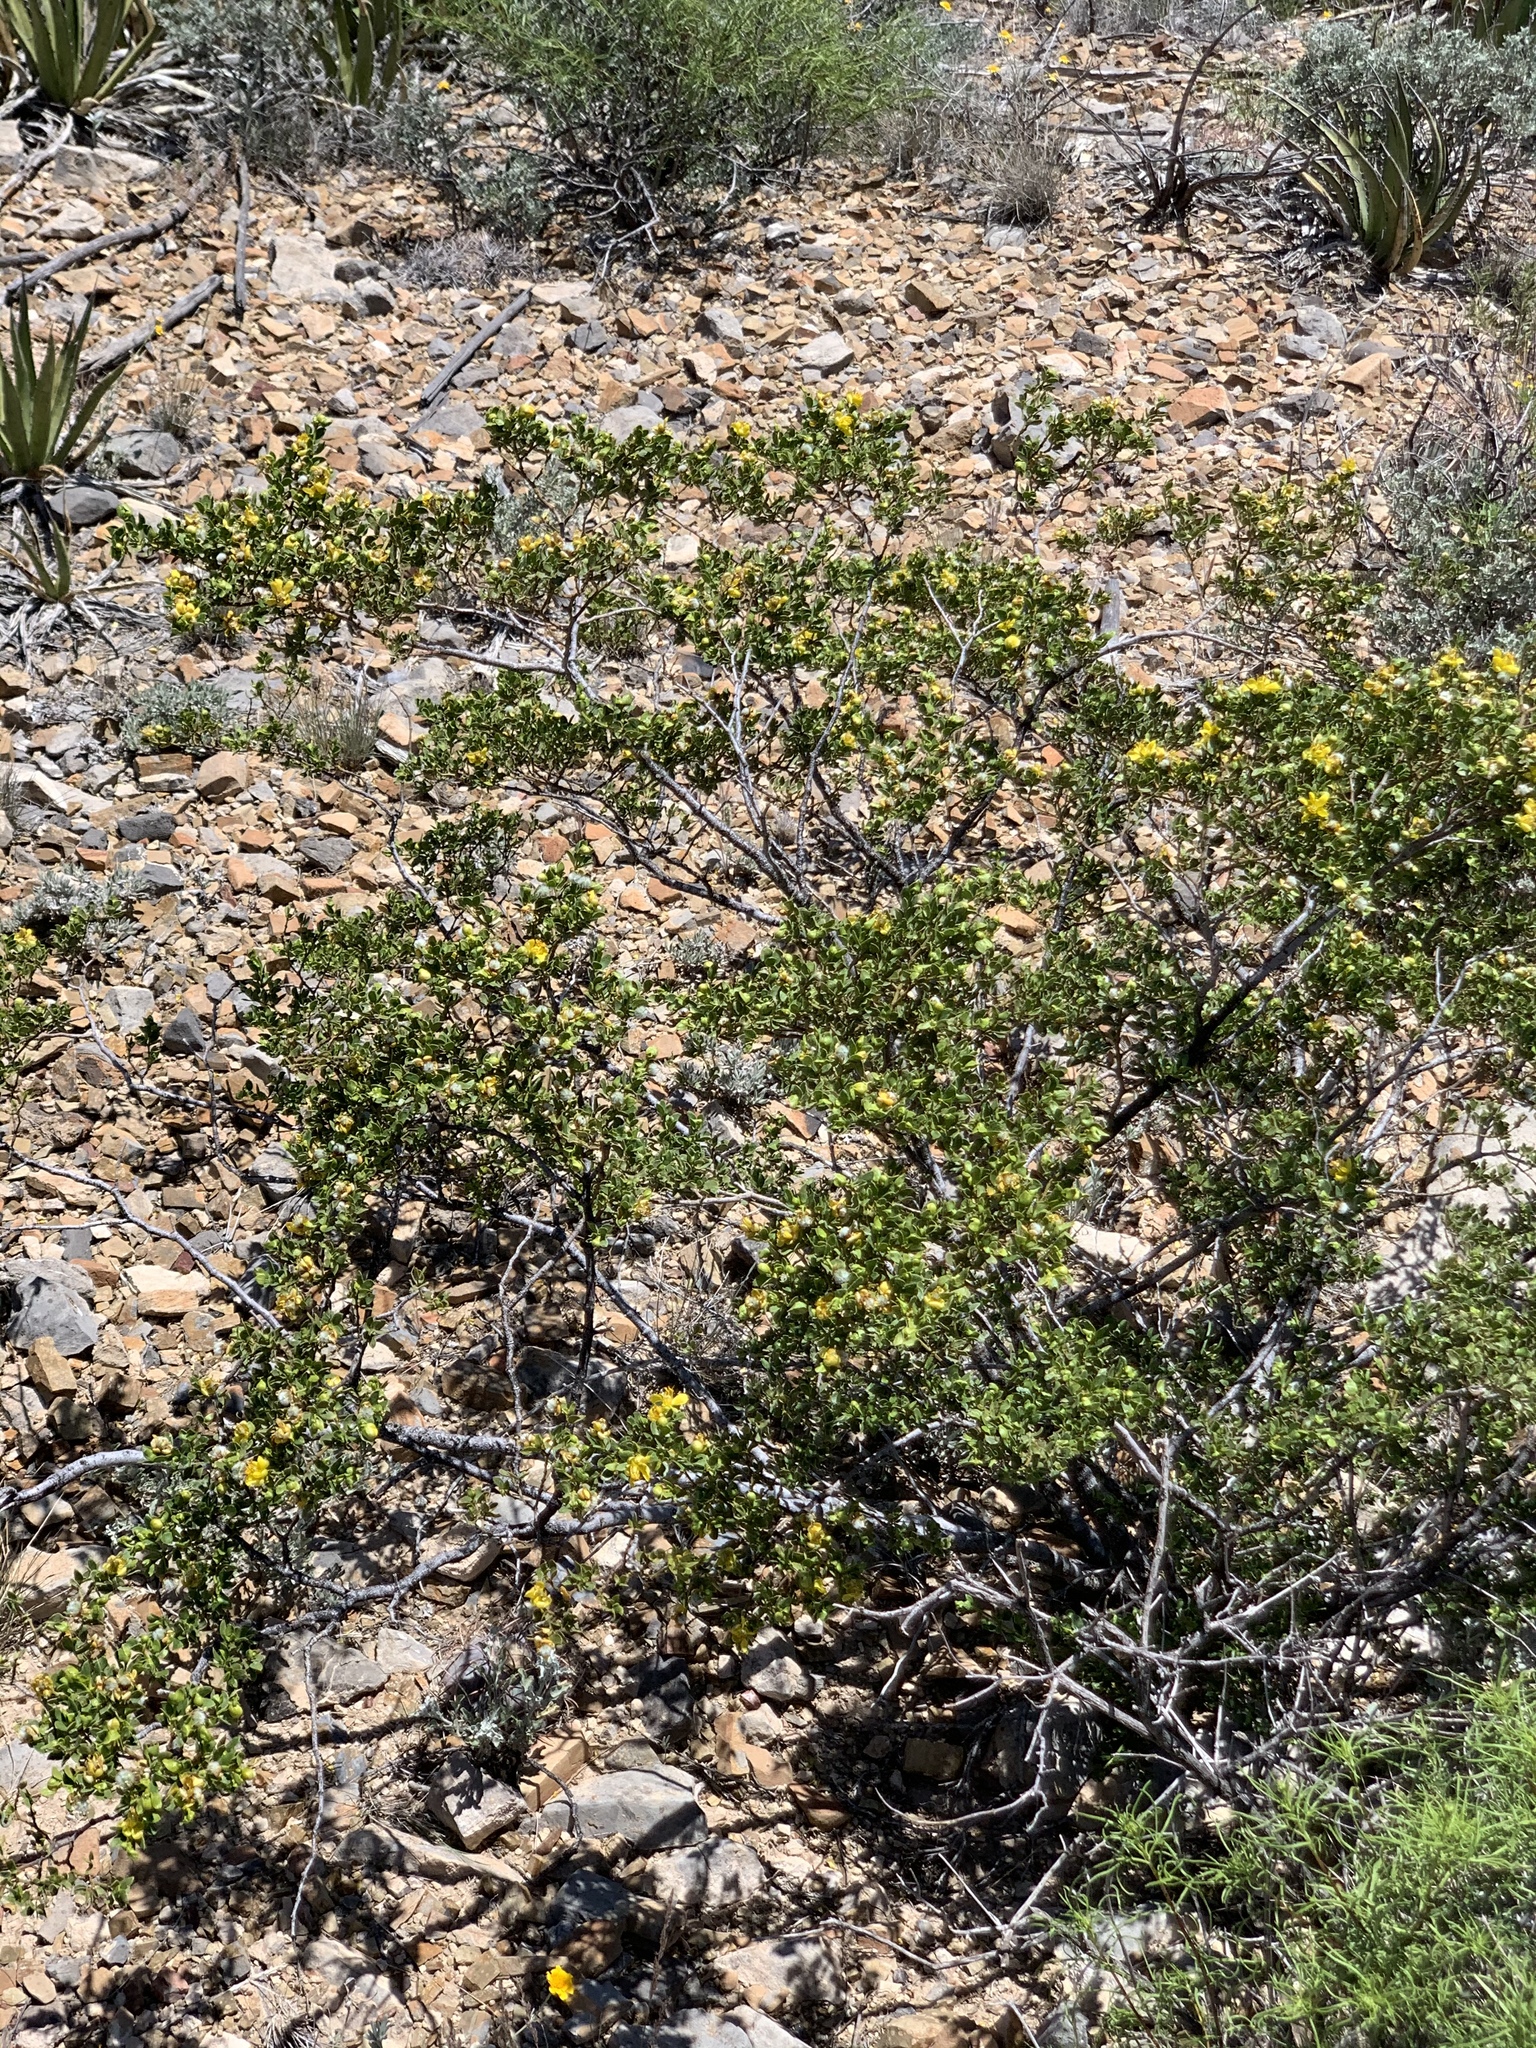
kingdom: Plantae
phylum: Tracheophyta
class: Magnoliopsida
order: Zygophyllales
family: Zygophyllaceae
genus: Larrea
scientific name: Larrea tridentata
